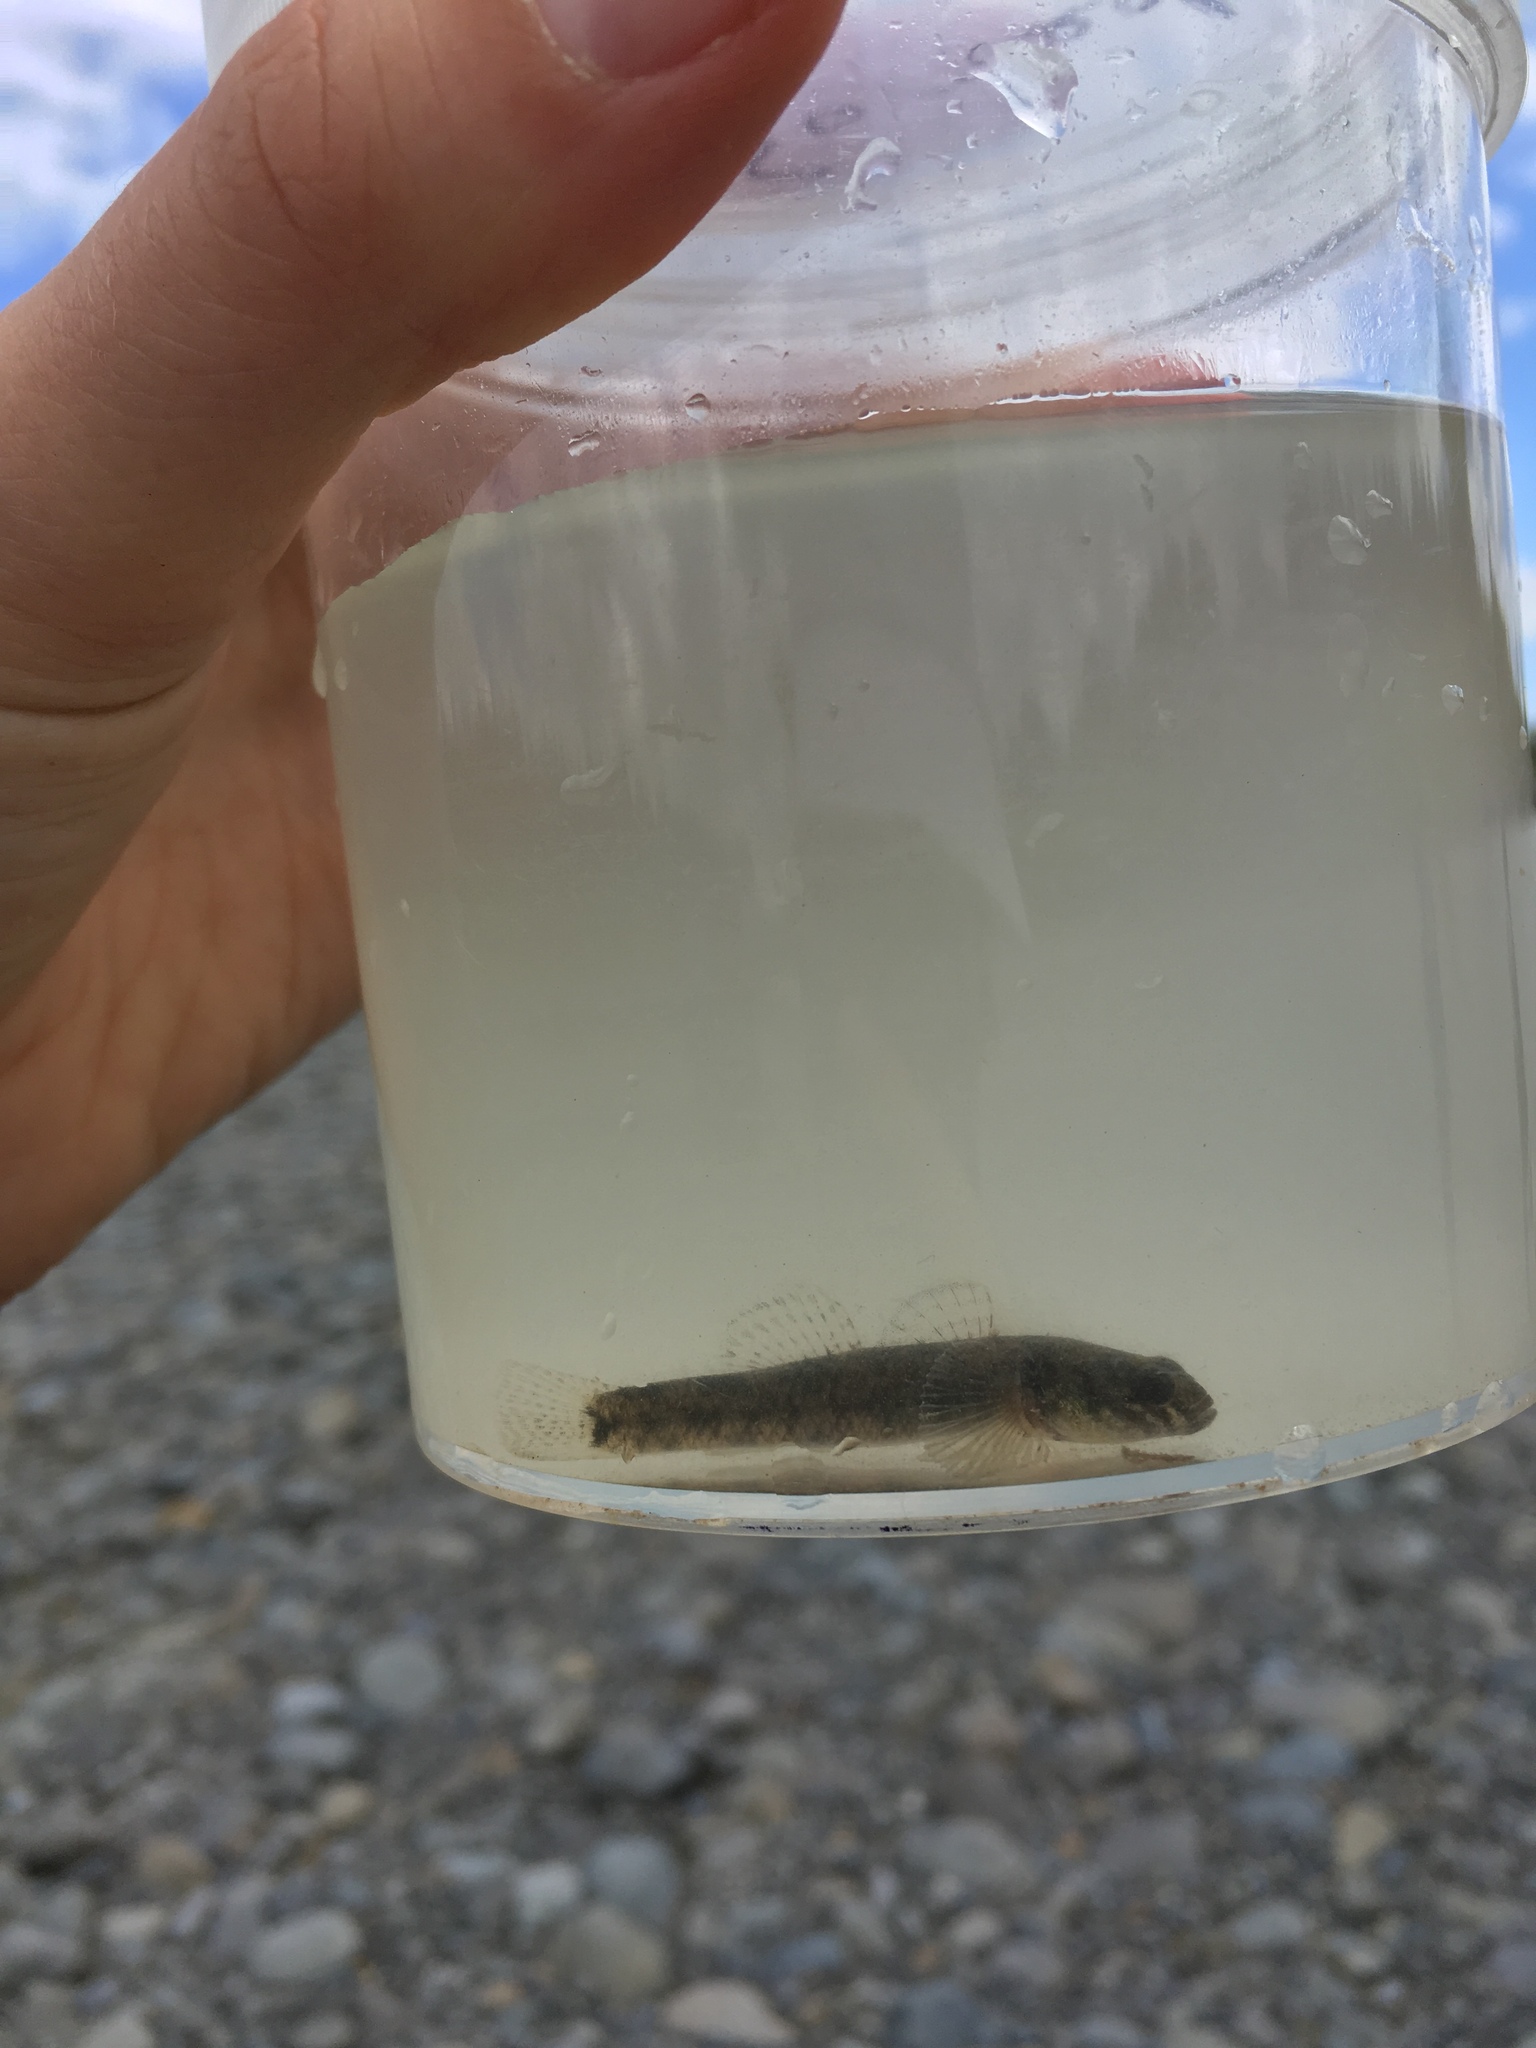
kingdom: Animalia
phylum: Chordata
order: Perciformes
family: Eleotridae
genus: Gobiomorphus
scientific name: Gobiomorphus huttoni
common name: Redfin bully
